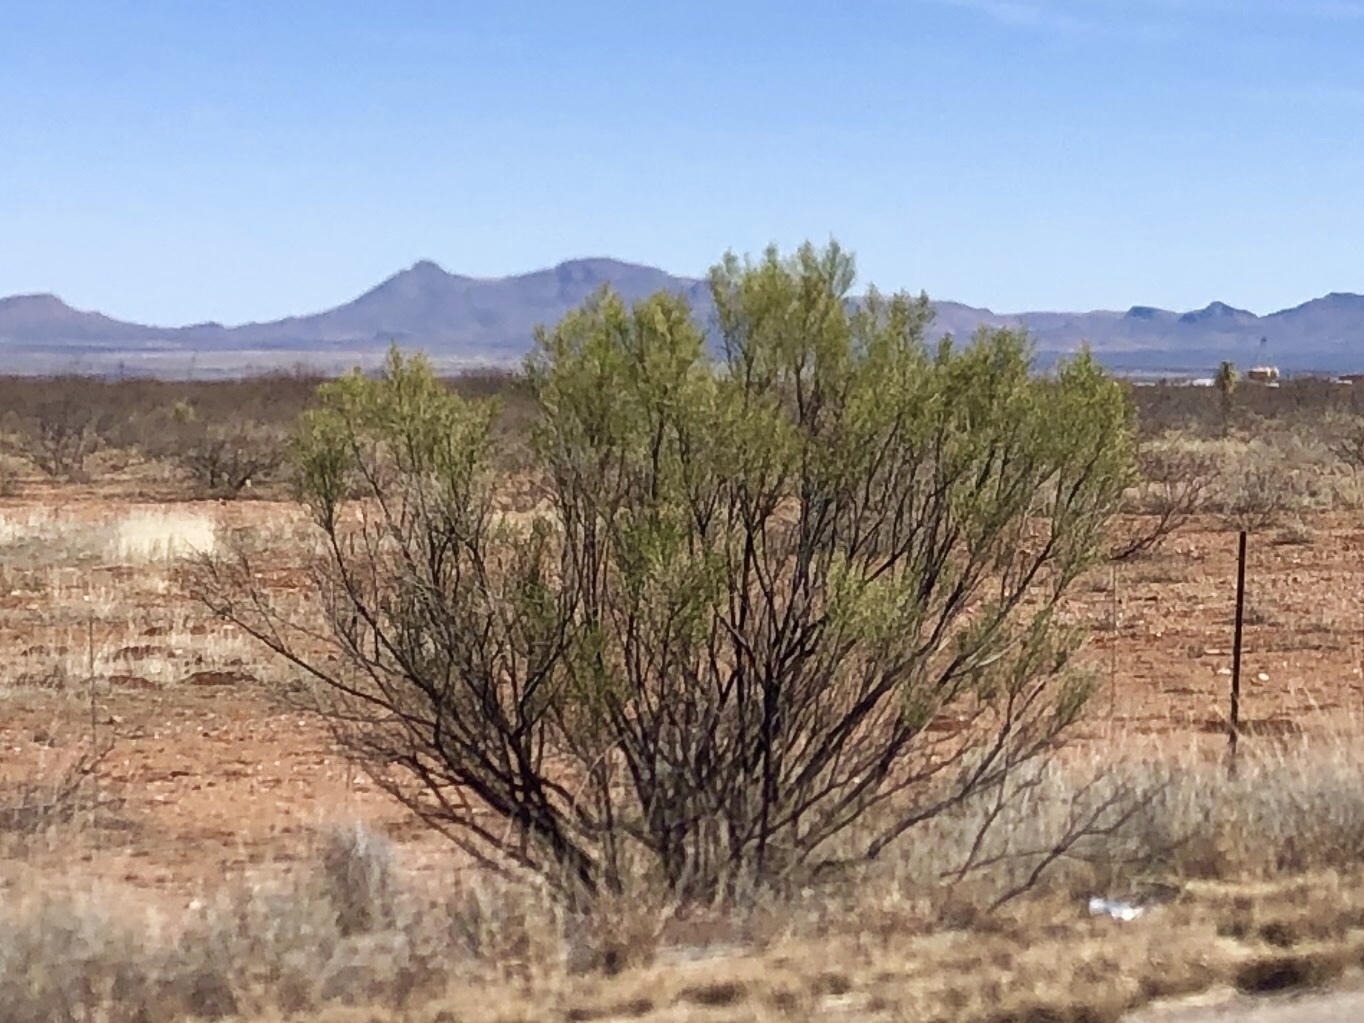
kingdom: Plantae
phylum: Tracheophyta
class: Magnoliopsida
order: Asterales
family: Asteraceae
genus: Baccharis
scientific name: Baccharis sarothroides
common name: Desert-broom
